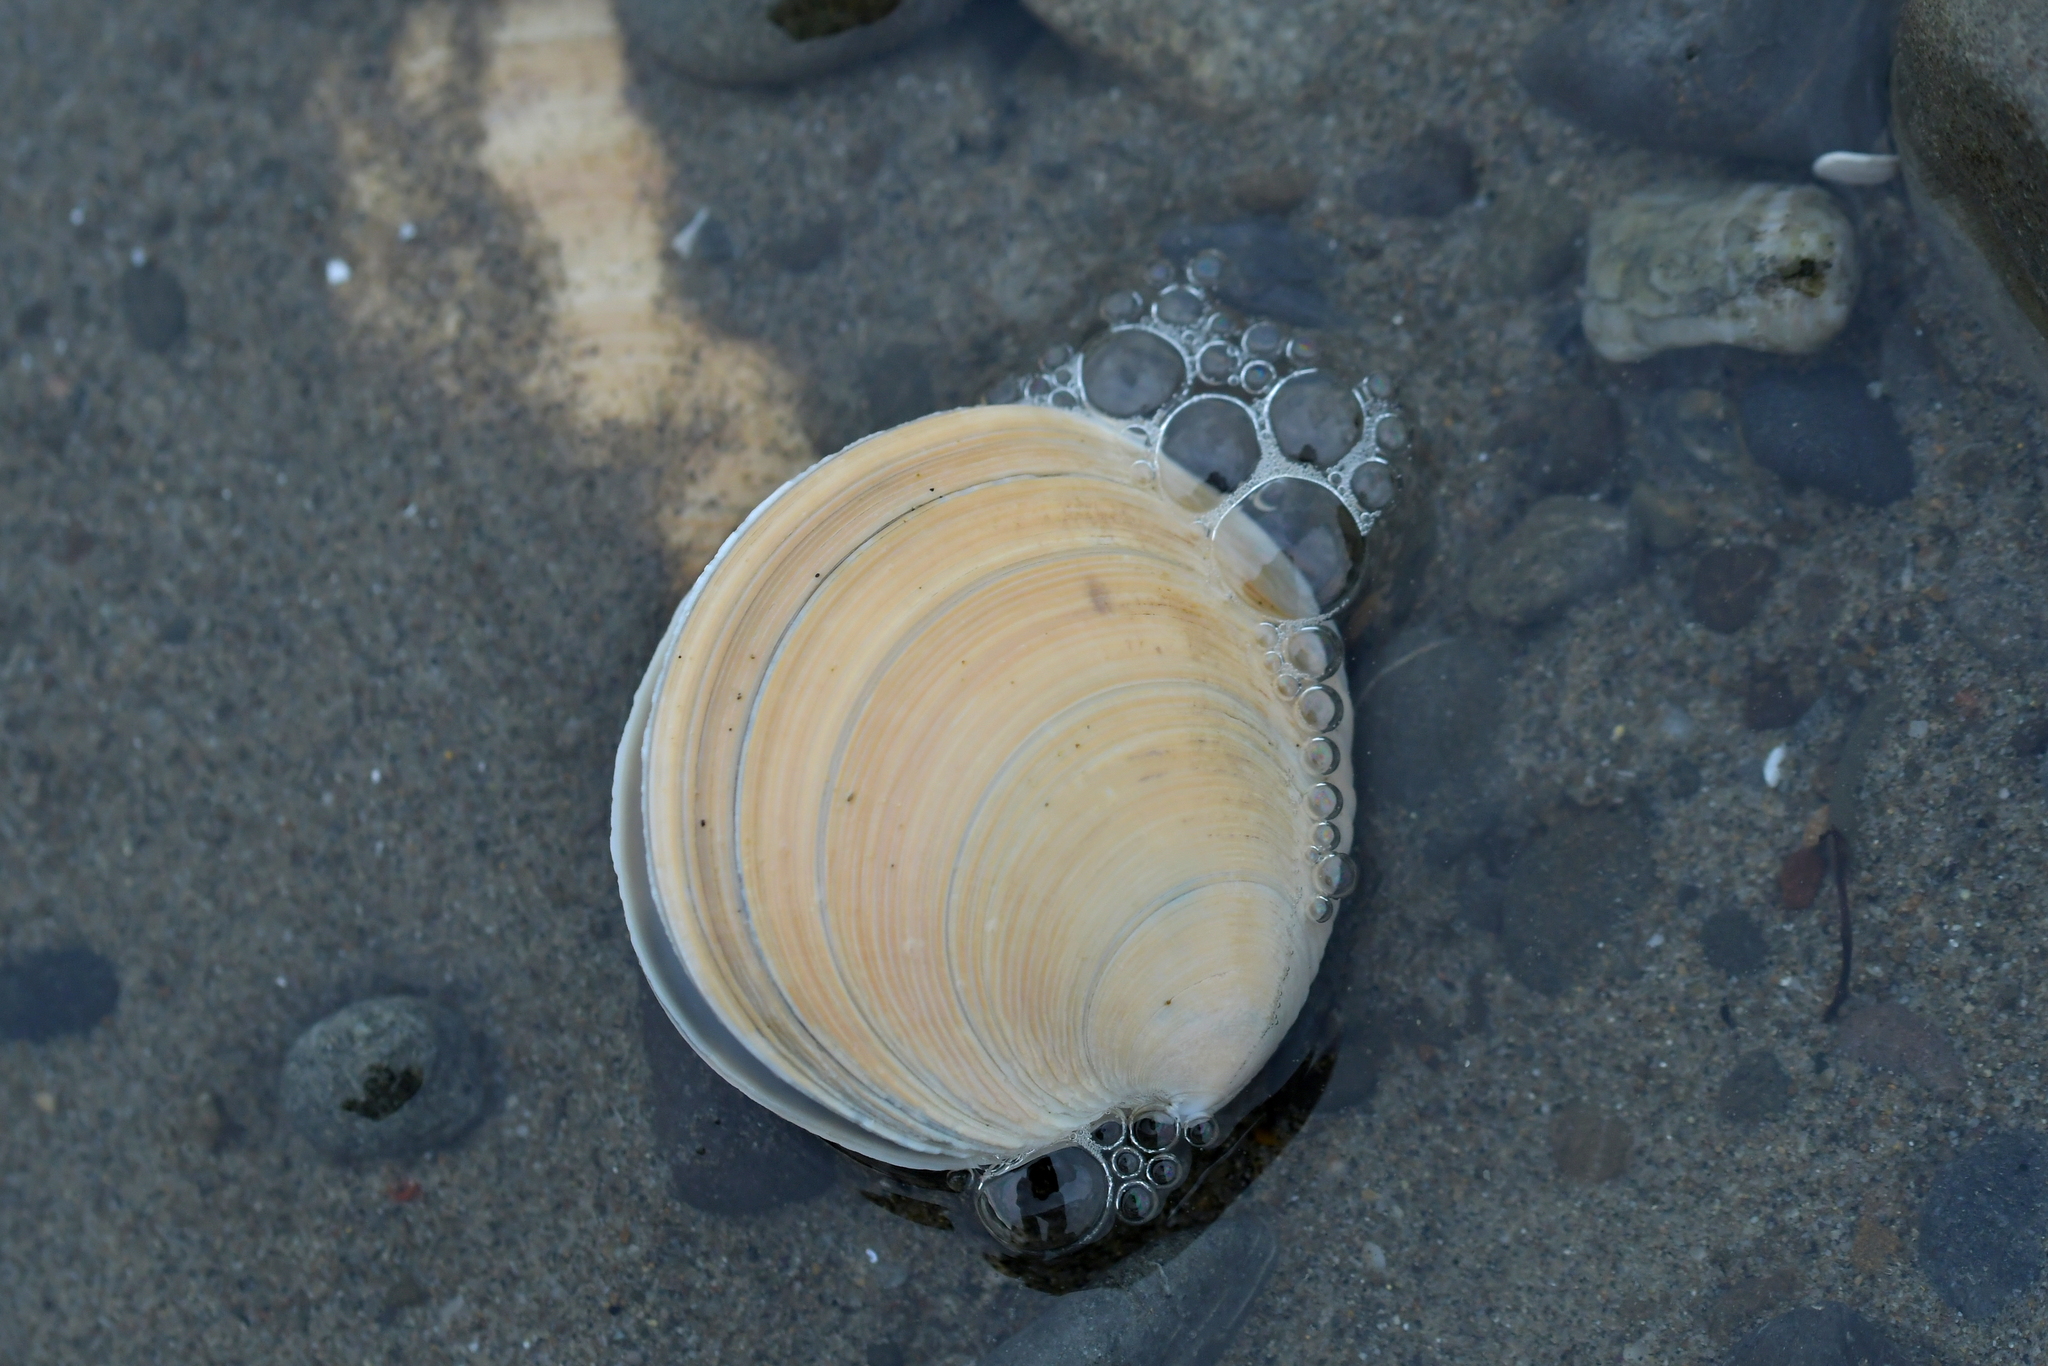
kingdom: Animalia
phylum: Mollusca
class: Bivalvia
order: Venerida
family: Veneridae
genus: Dosinia
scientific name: Dosinia anus
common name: Old-woman dosinia
